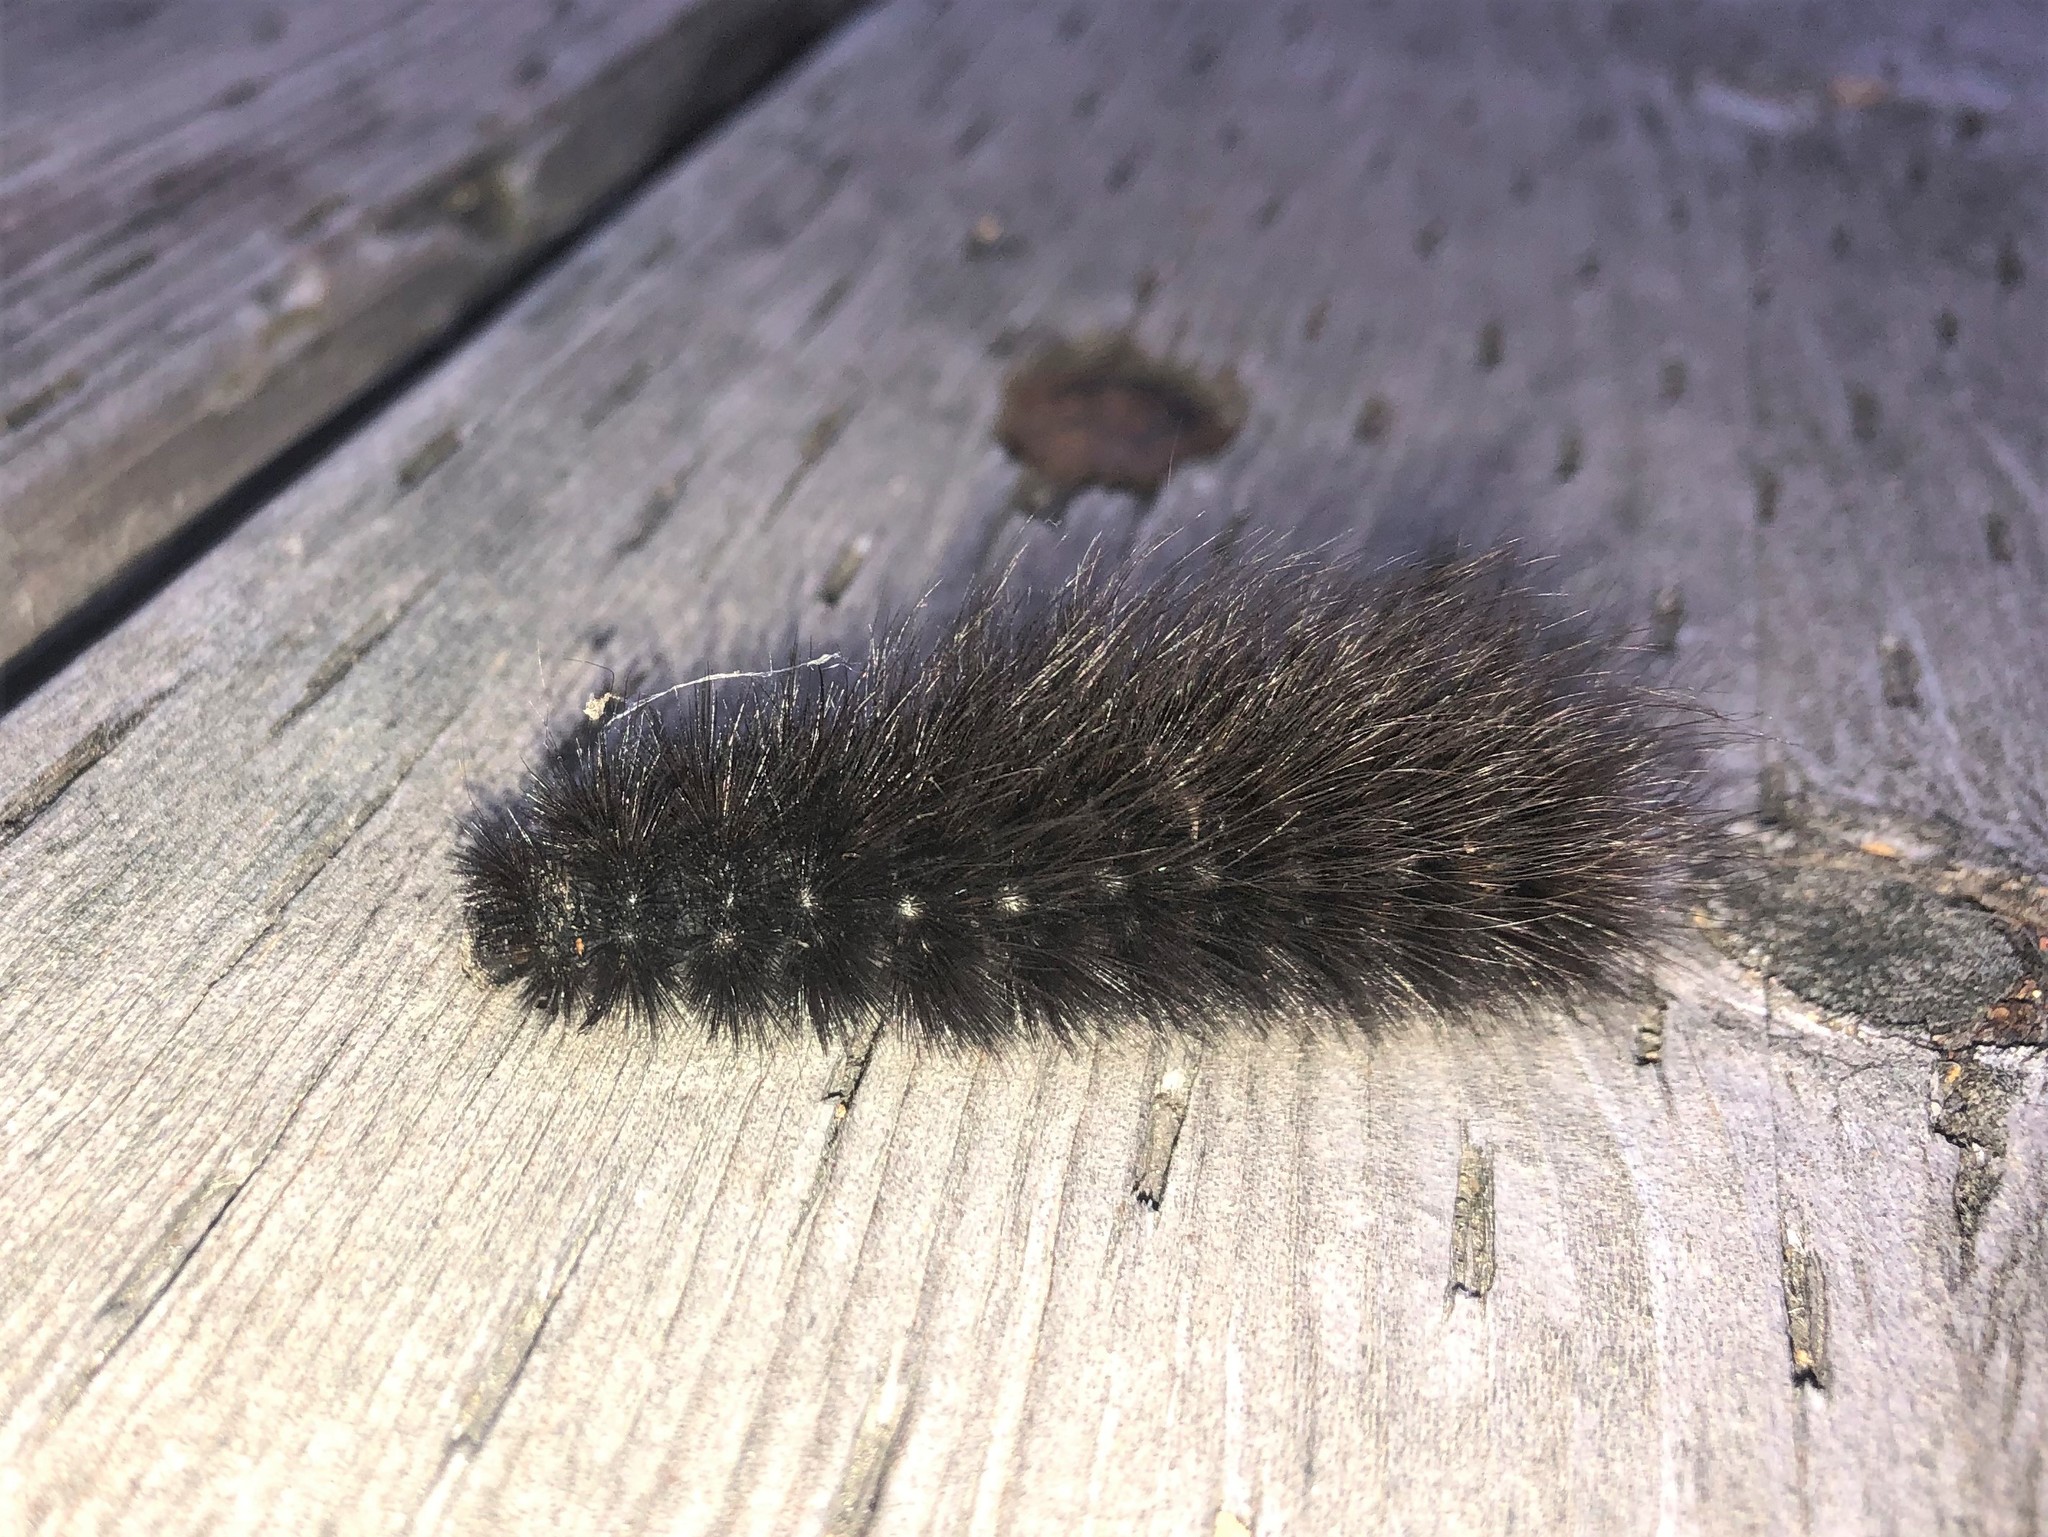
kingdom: Animalia
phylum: Arthropoda
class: Insecta
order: Lepidoptera
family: Erebidae
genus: Arctia
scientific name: Arctia parthenos
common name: St. lawrence tiger moth
